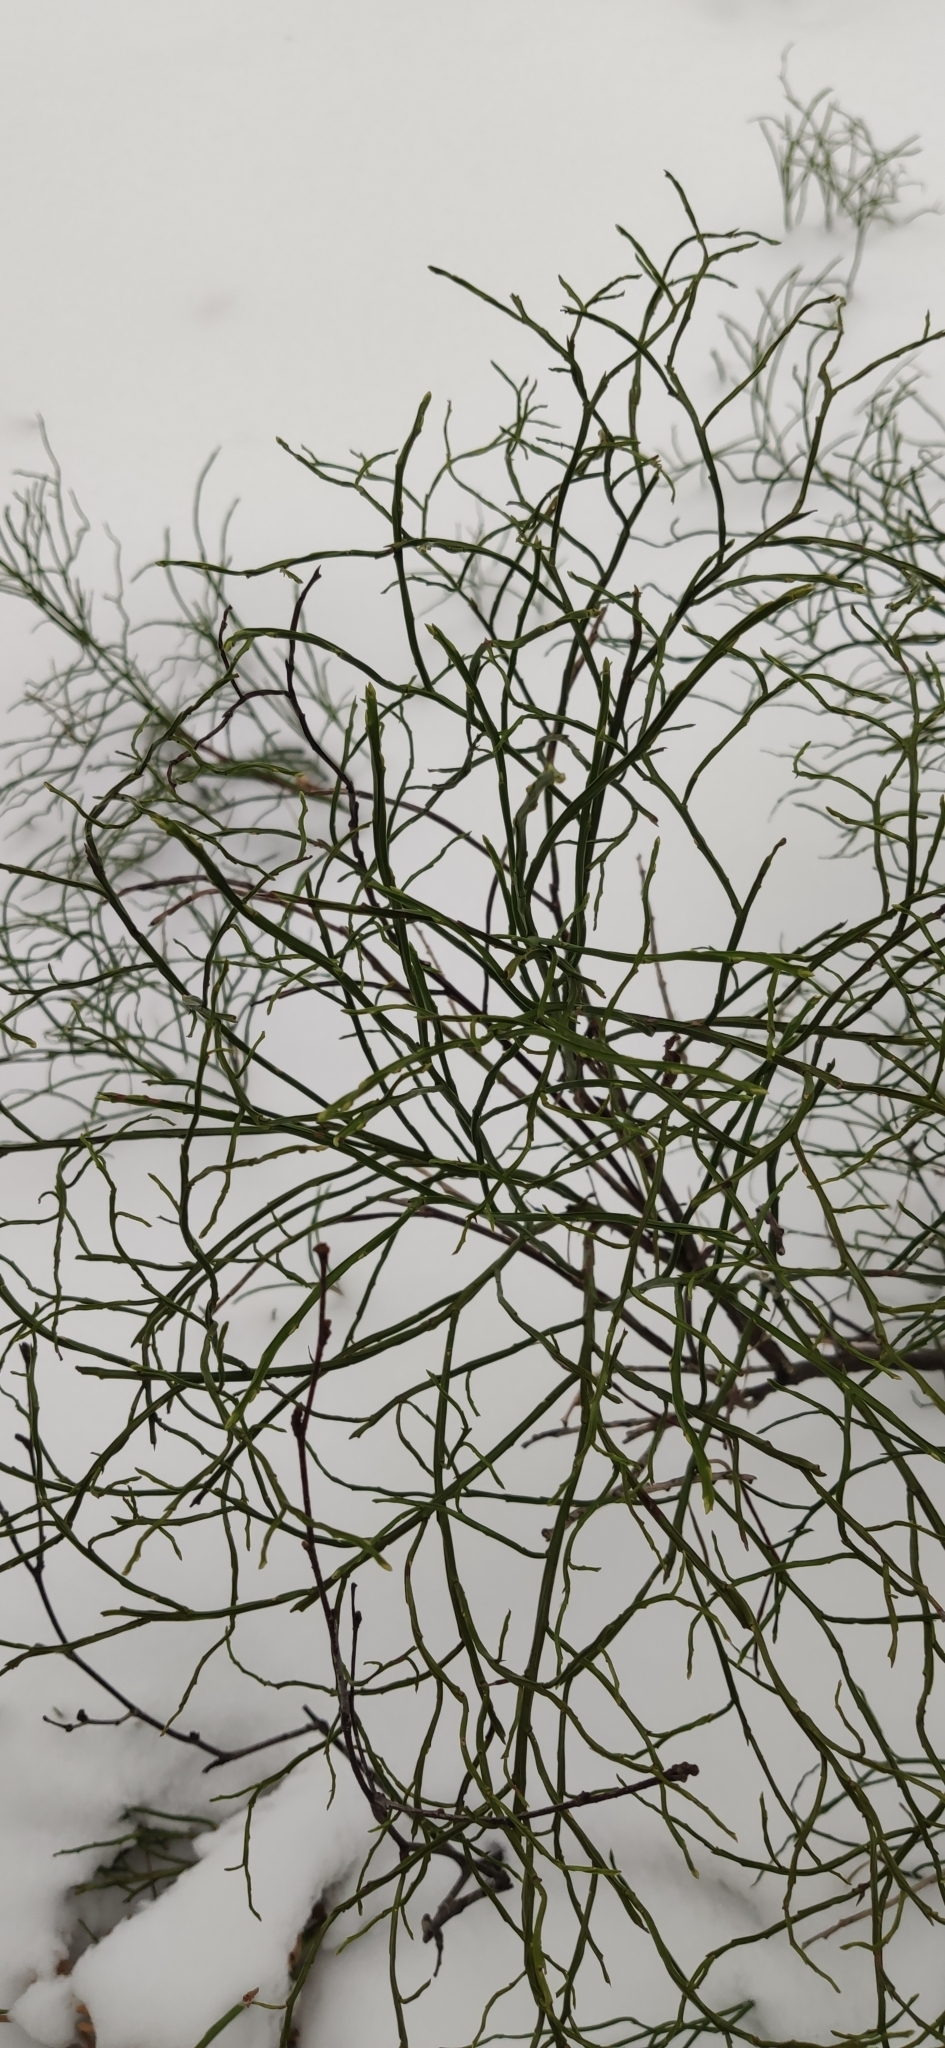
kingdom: Plantae
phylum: Tracheophyta
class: Magnoliopsida
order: Ericales
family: Ericaceae
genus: Vaccinium
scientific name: Vaccinium myrtillus
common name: Bilberry
